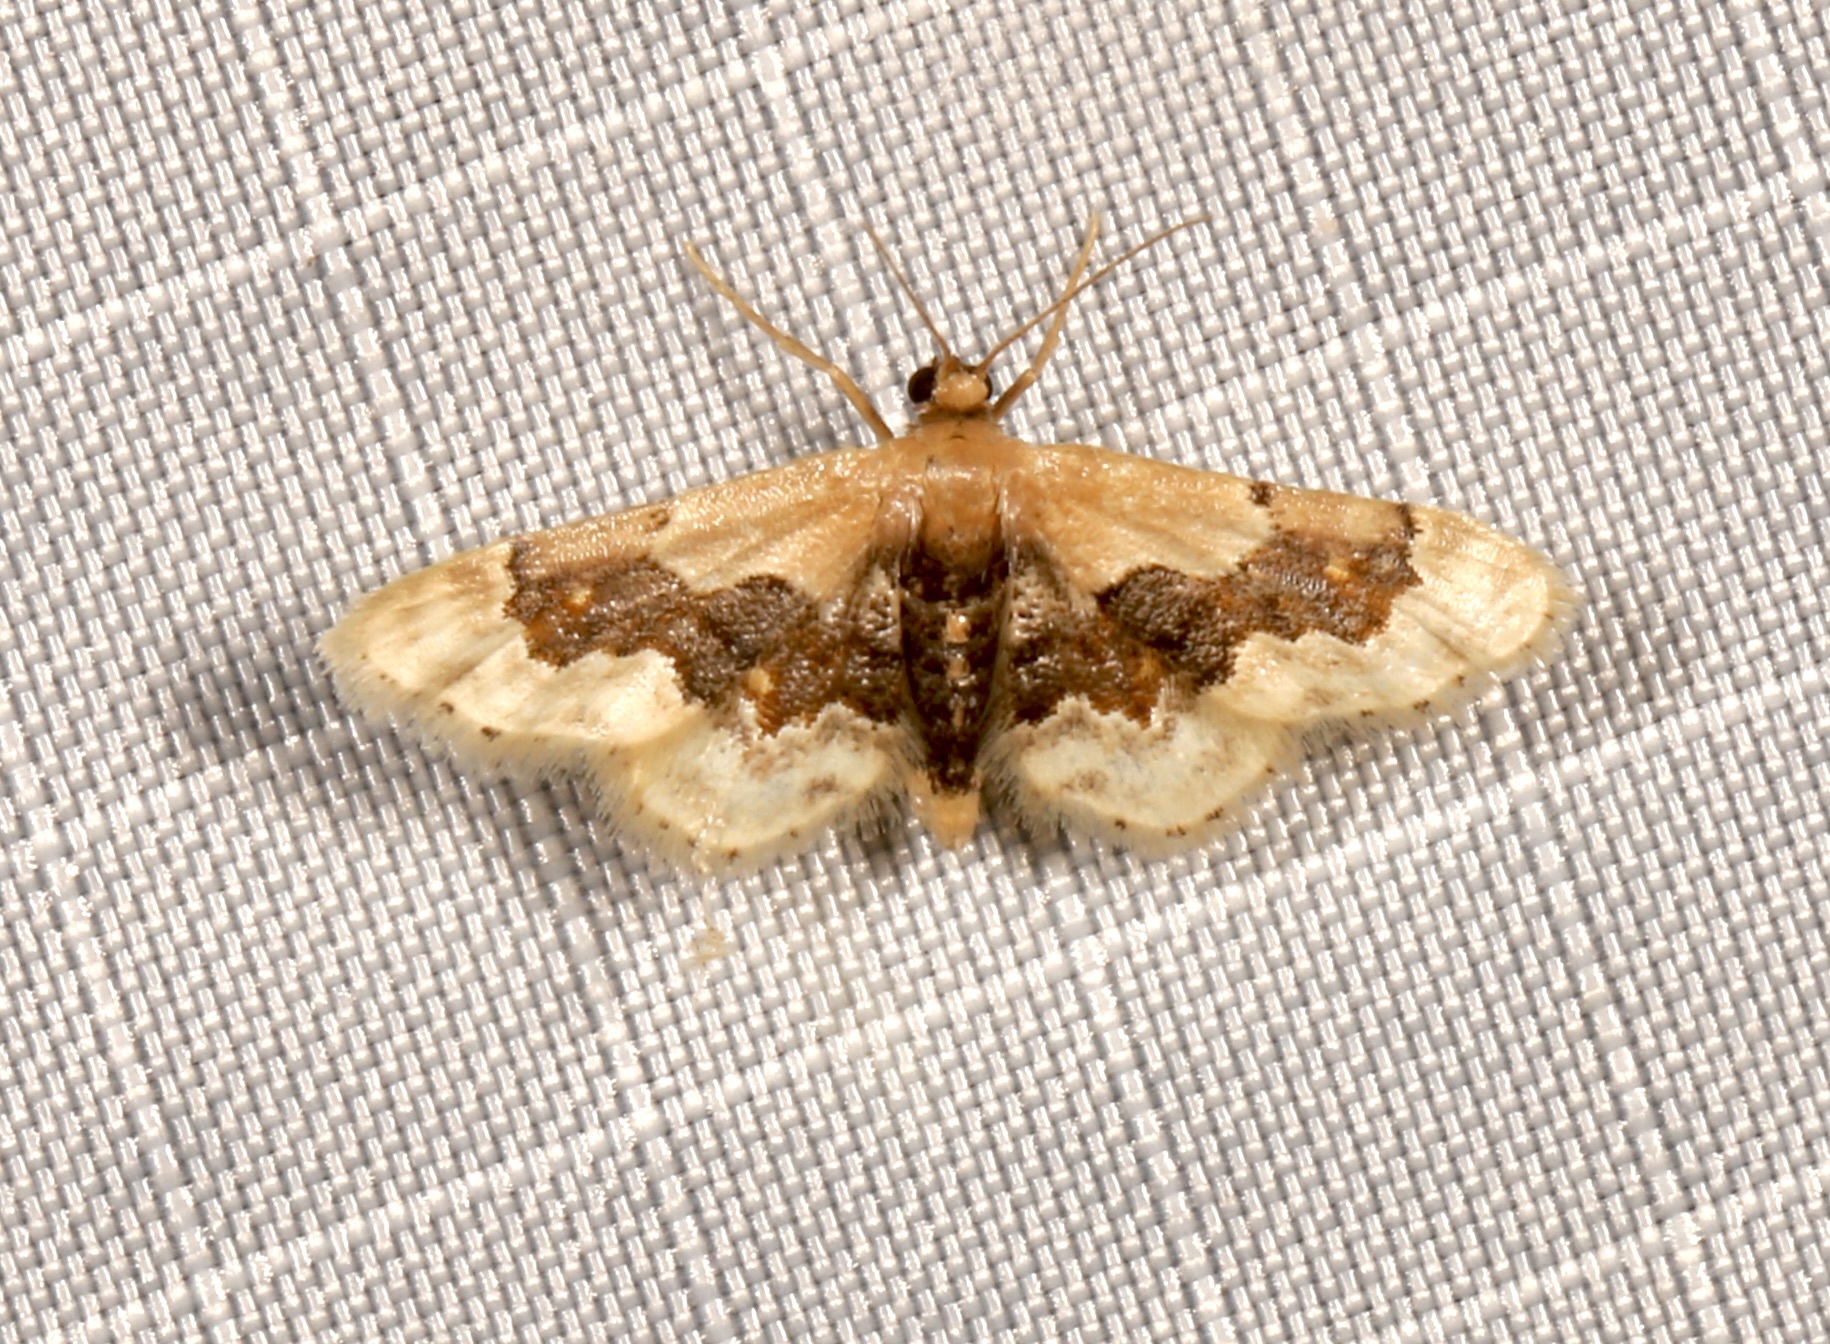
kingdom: Animalia
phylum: Arthropoda
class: Insecta
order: Lepidoptera
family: Geometridae
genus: Idaea
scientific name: Idaea gemmata
